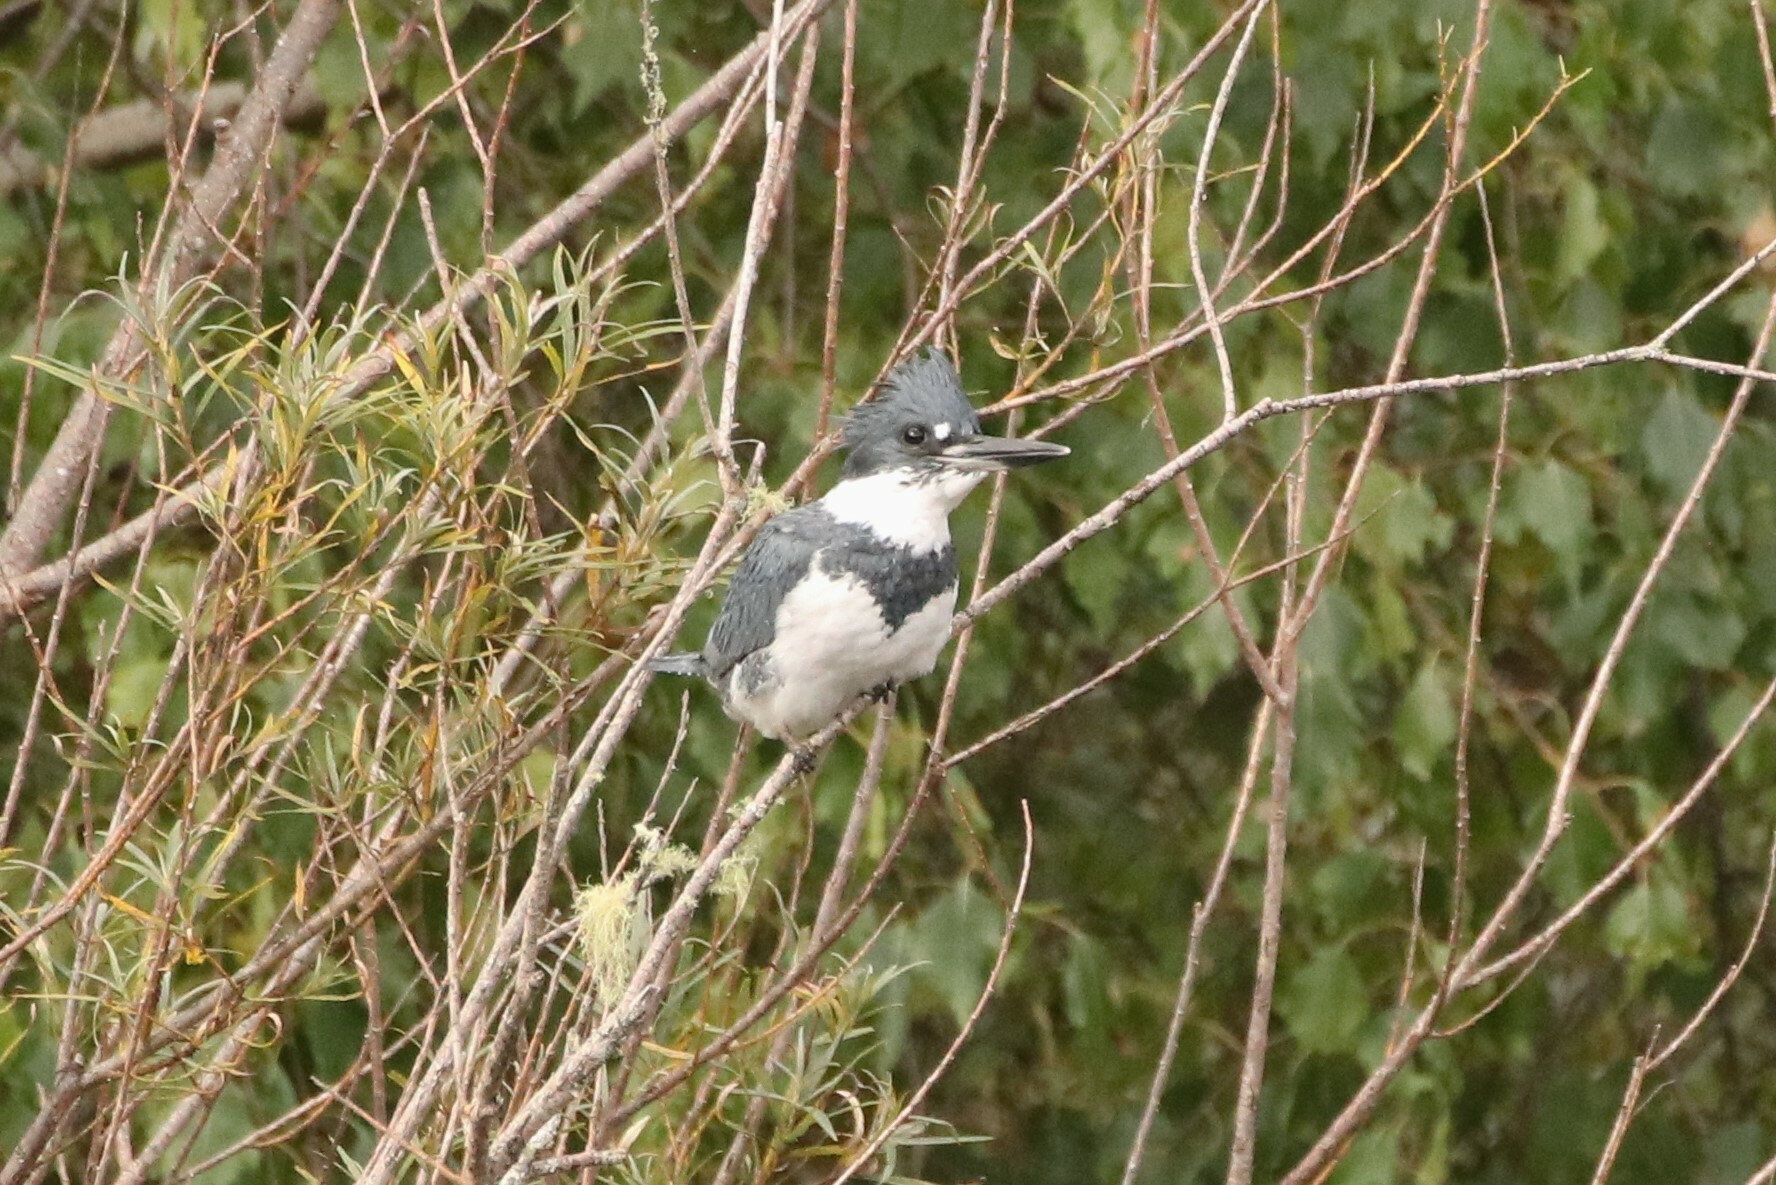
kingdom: Animalia
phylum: Chordata
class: Aves
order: Coraciiformes
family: Alcedinidae
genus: Megaceryle
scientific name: Megaceryle alcyon
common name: Belted kingfisher
